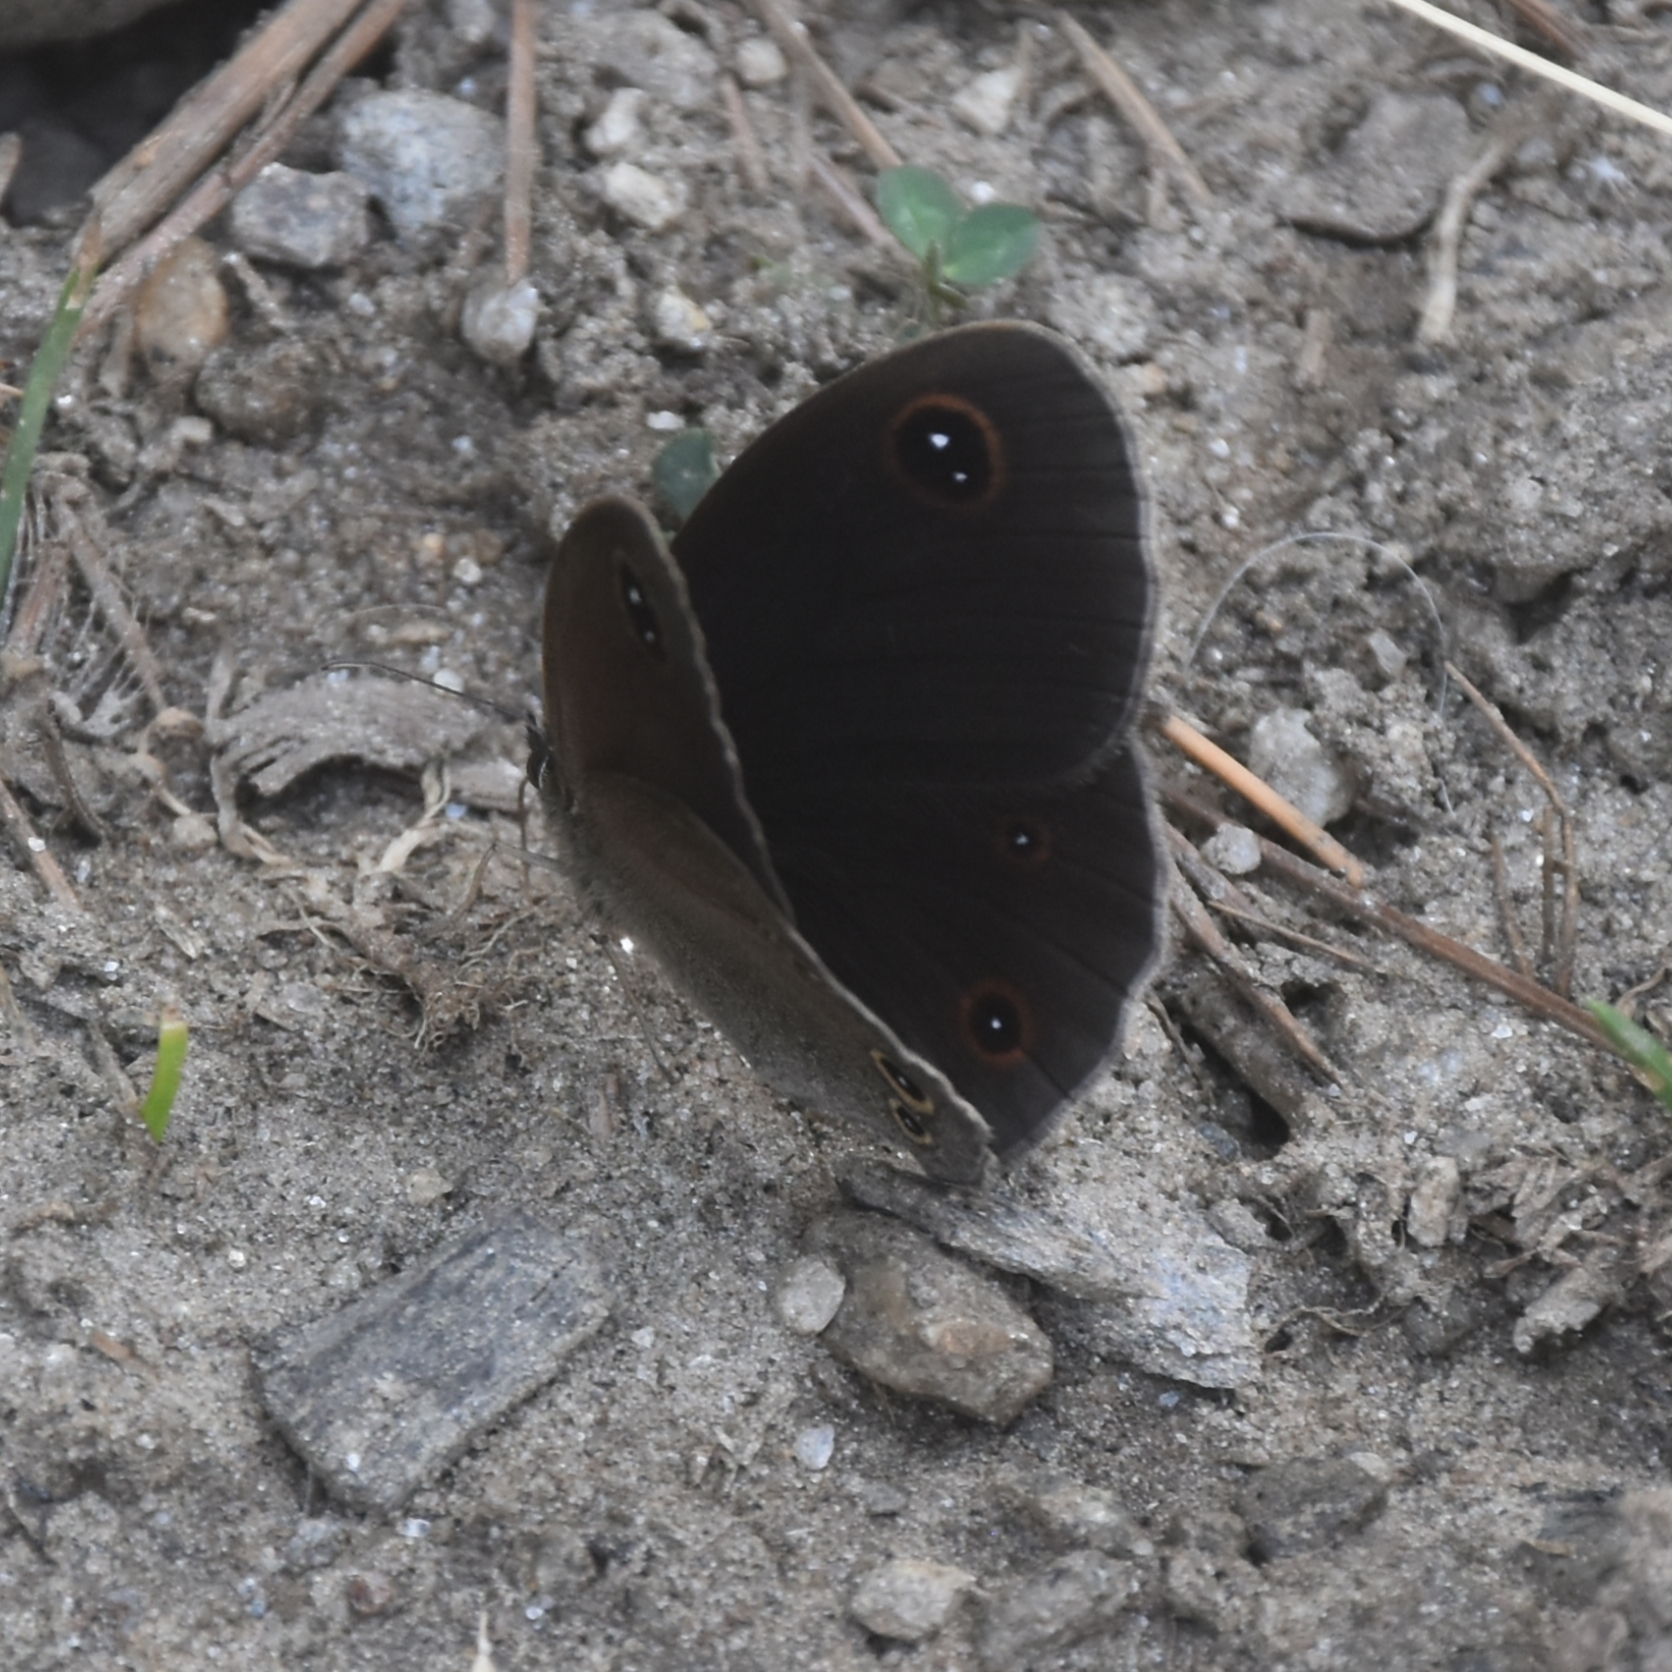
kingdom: Animalia
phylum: Arthropoda
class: Insecta
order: Lepidoptera
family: Nymphalidae
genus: Callerebia
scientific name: Callerebia nirmala
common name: Common argus
